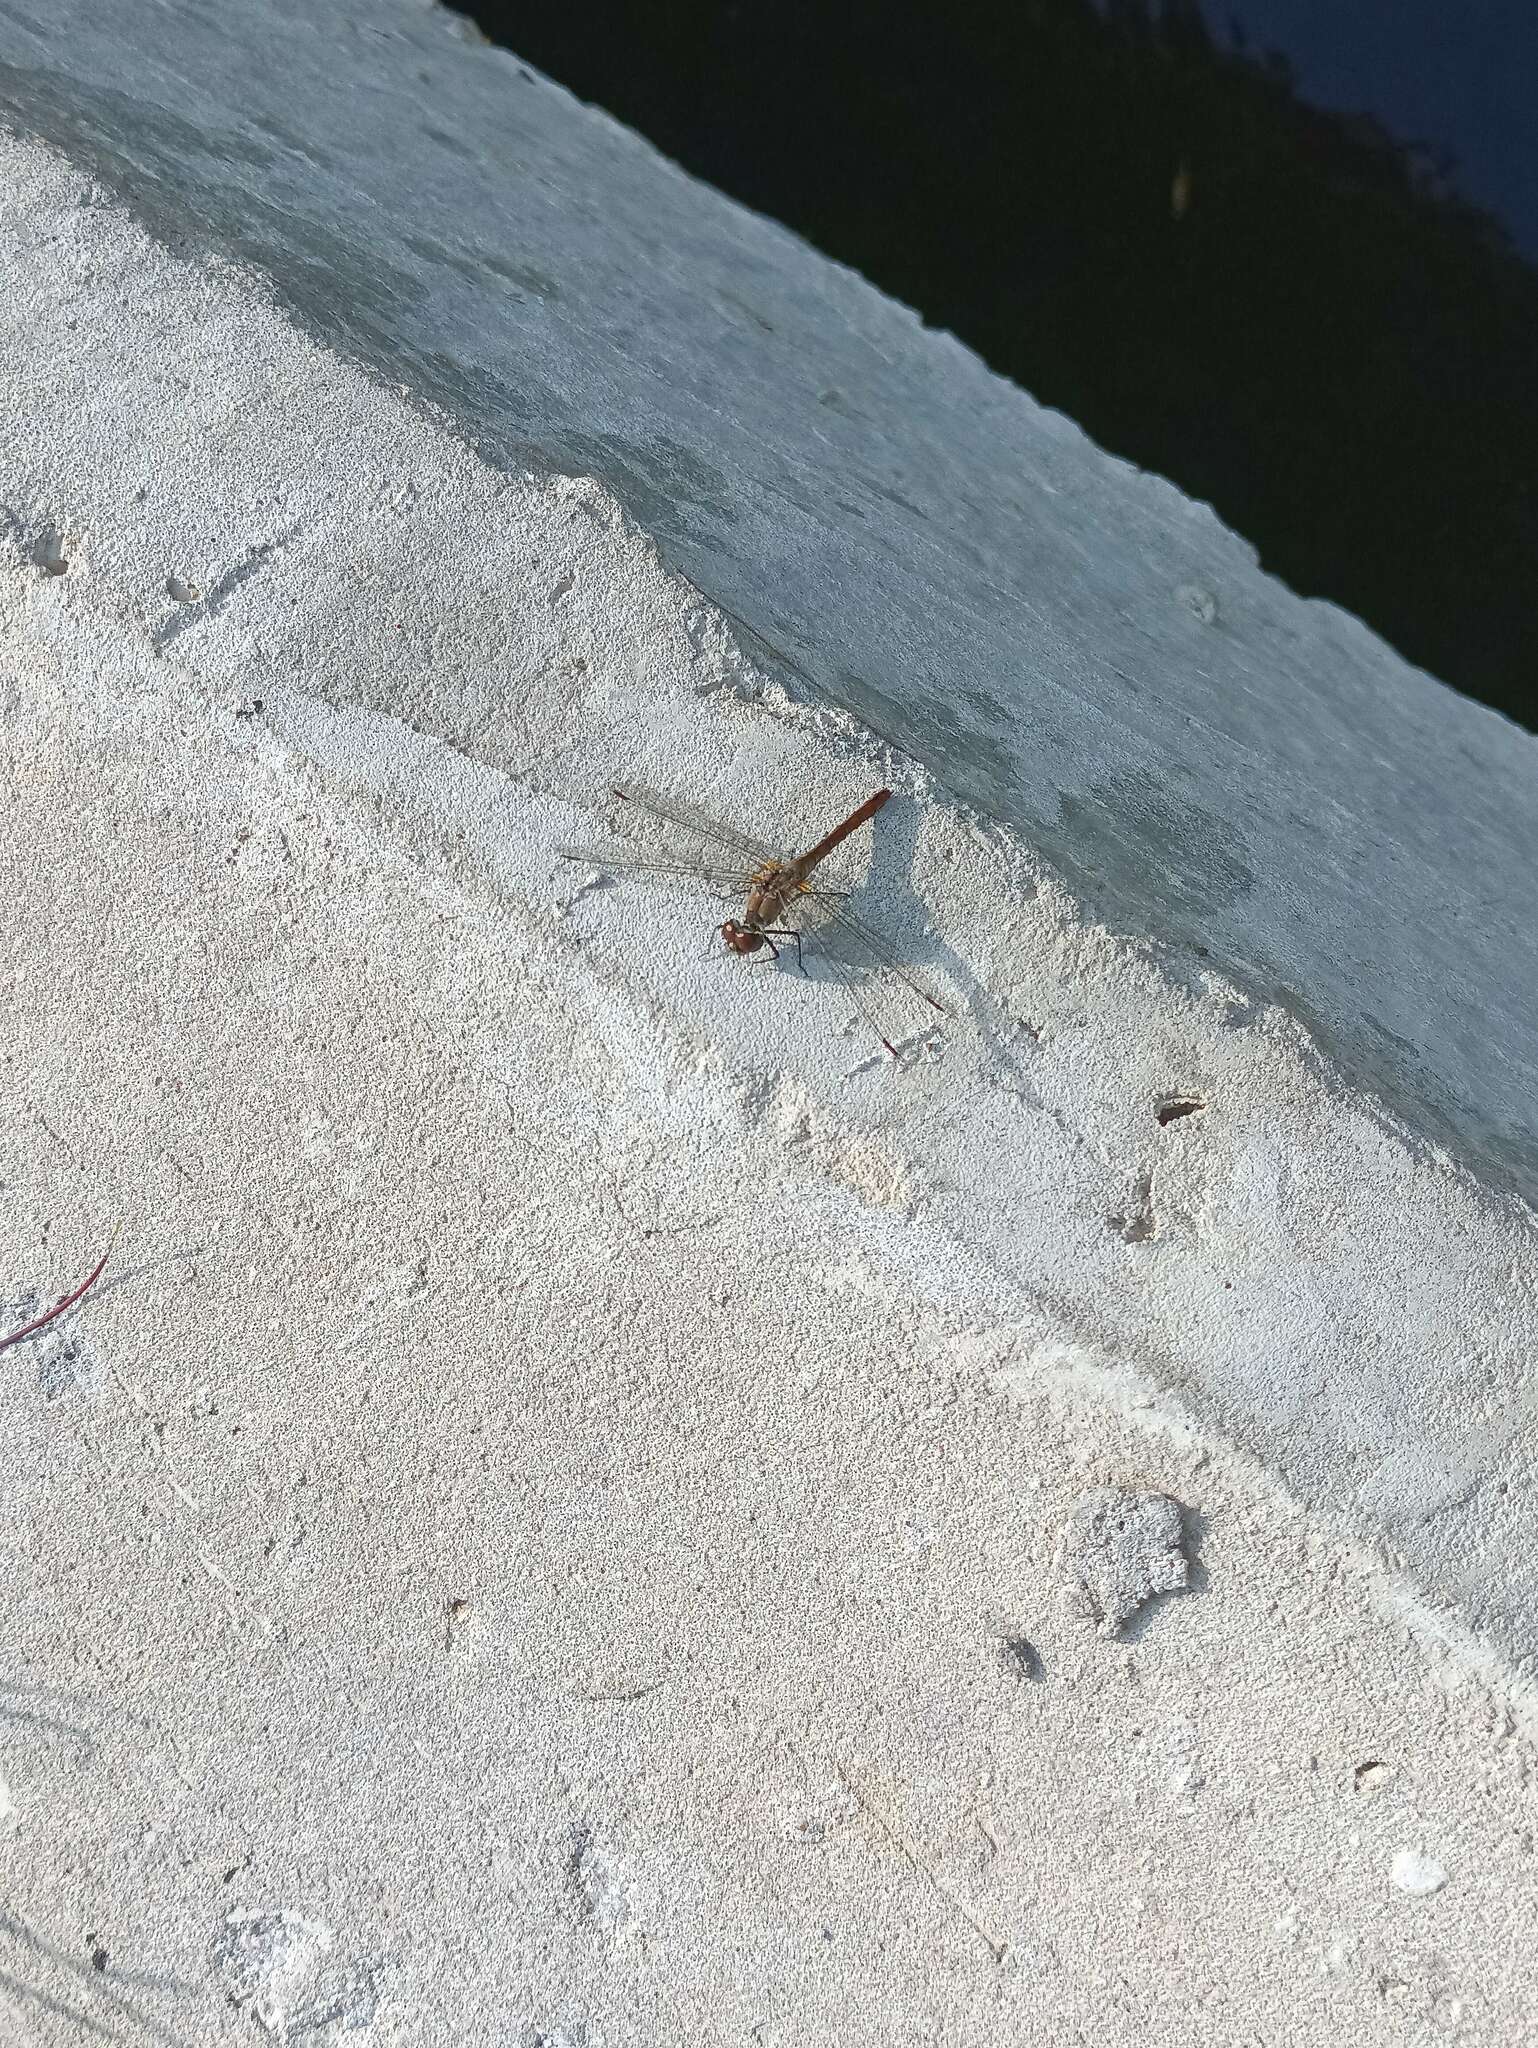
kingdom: Animalia
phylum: Arthropoda
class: Insecta
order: Odonata
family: Libellulidae
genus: Sympetrum
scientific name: Sympetrum sanguineum
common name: Ruddy darter
